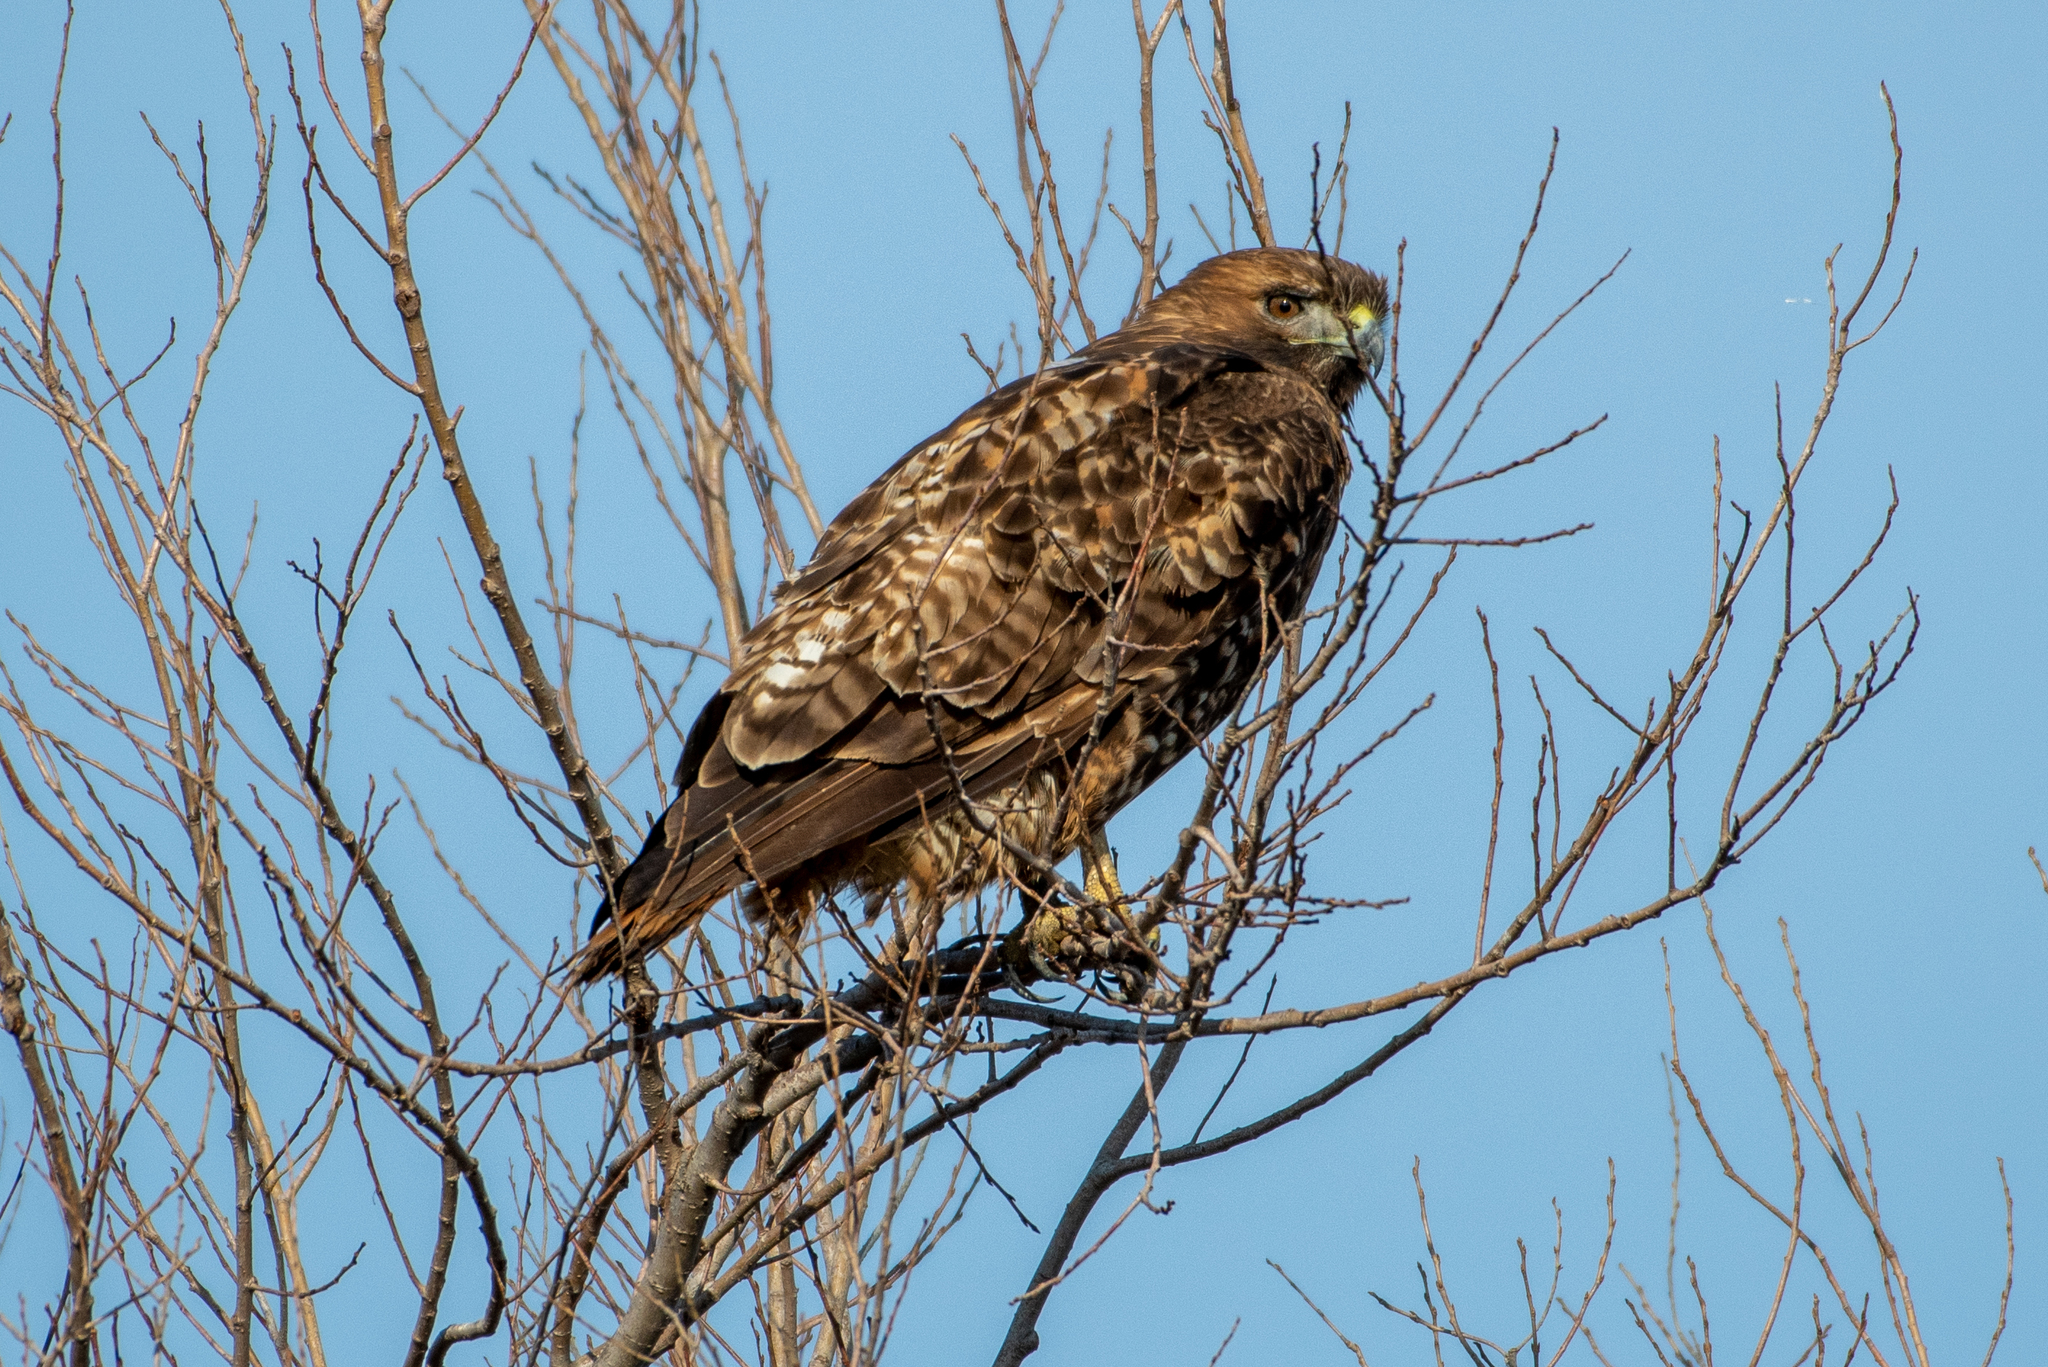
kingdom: Animalia
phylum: Chordata
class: Aves
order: Accipitriformes
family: Accipitridae
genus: Buteo
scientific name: Buteo jamaicensis
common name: Red-tailed hawk
